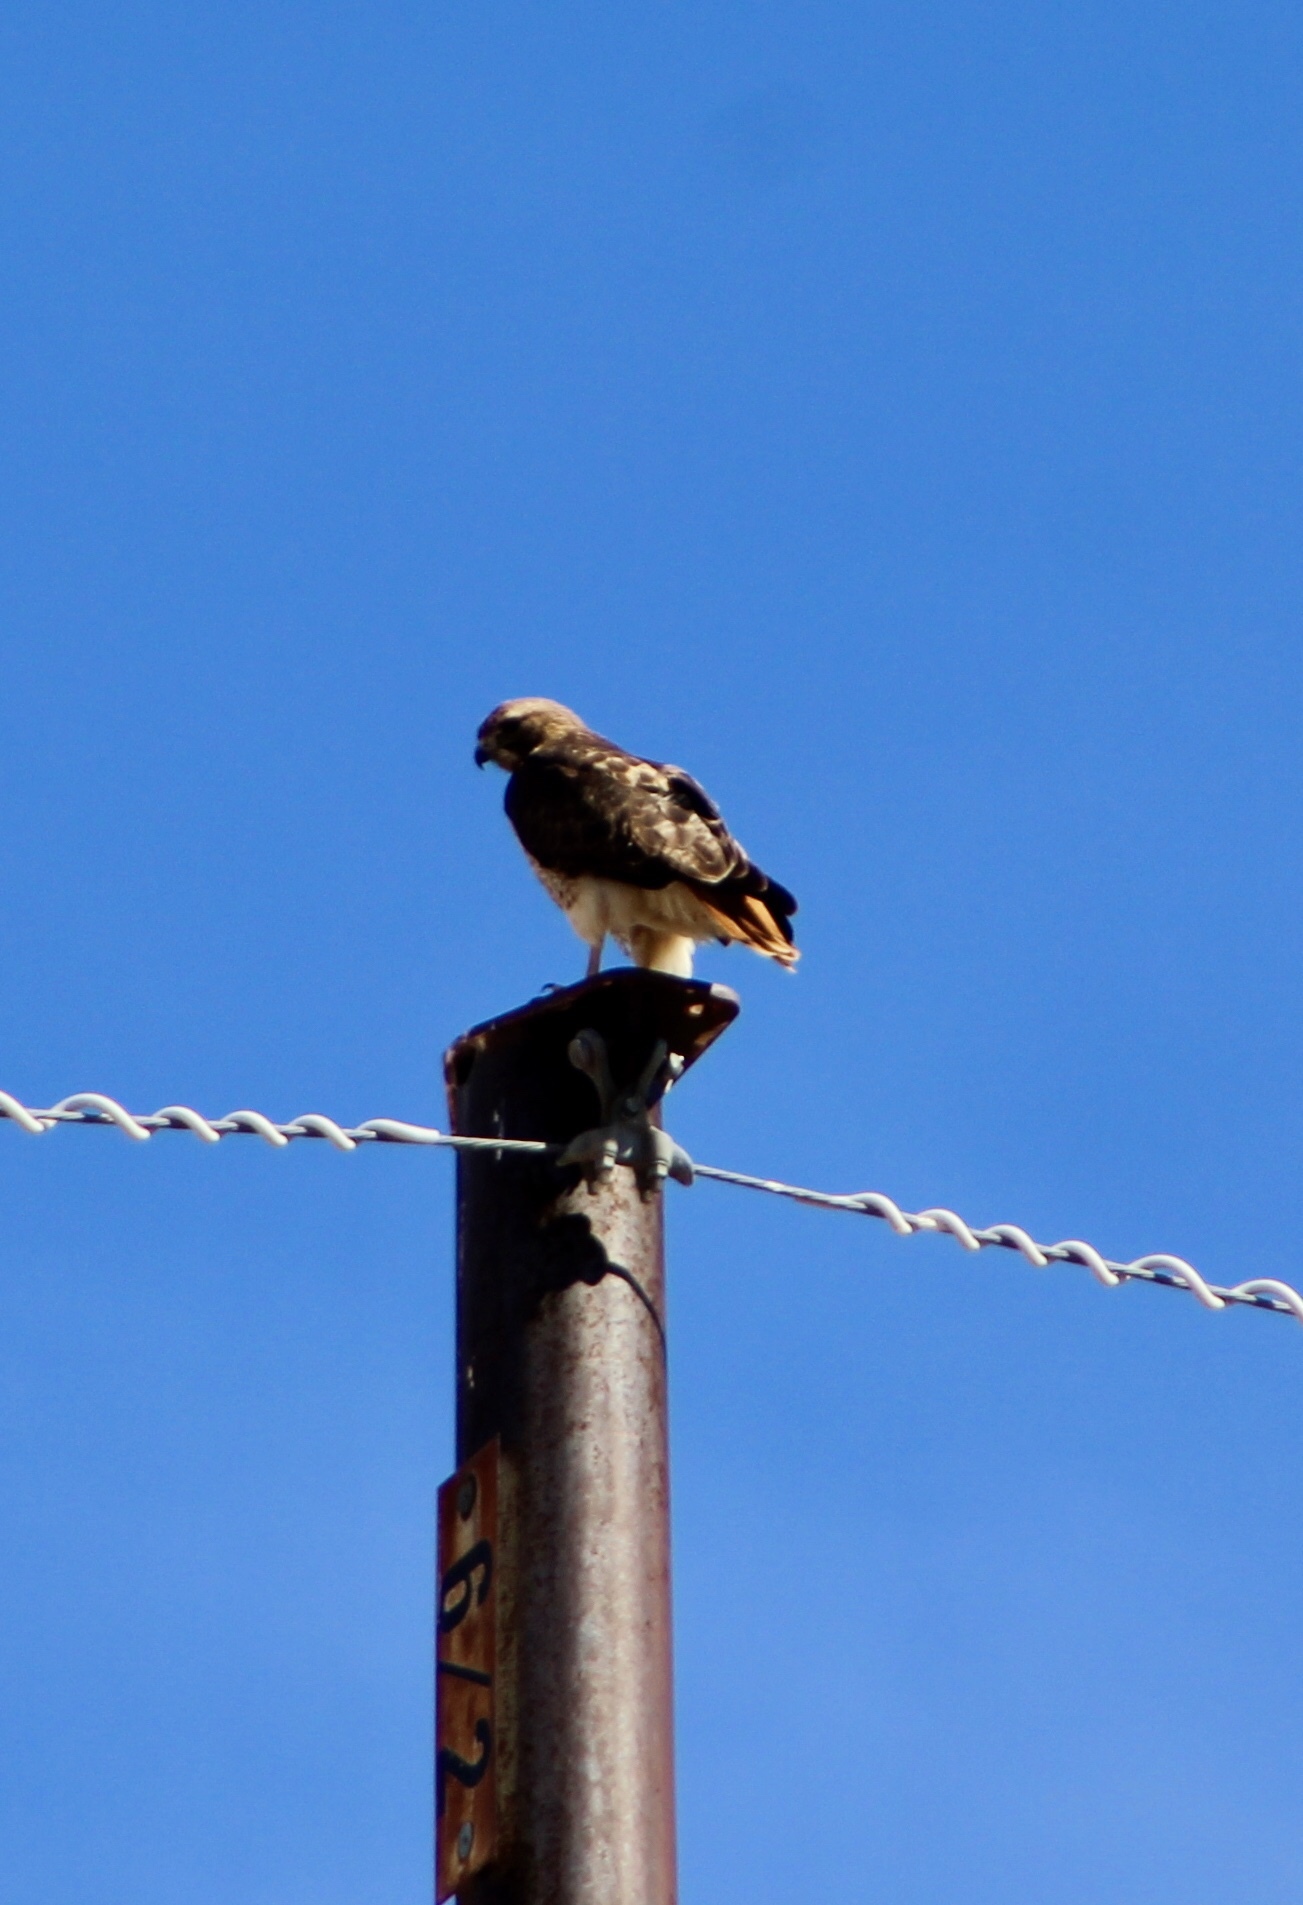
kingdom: Animalia
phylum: Chordata
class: Aves
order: Accipitriformes
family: Accipitridae
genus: Buteo
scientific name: Buteo jamaicensis
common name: Red-tailed hawk
